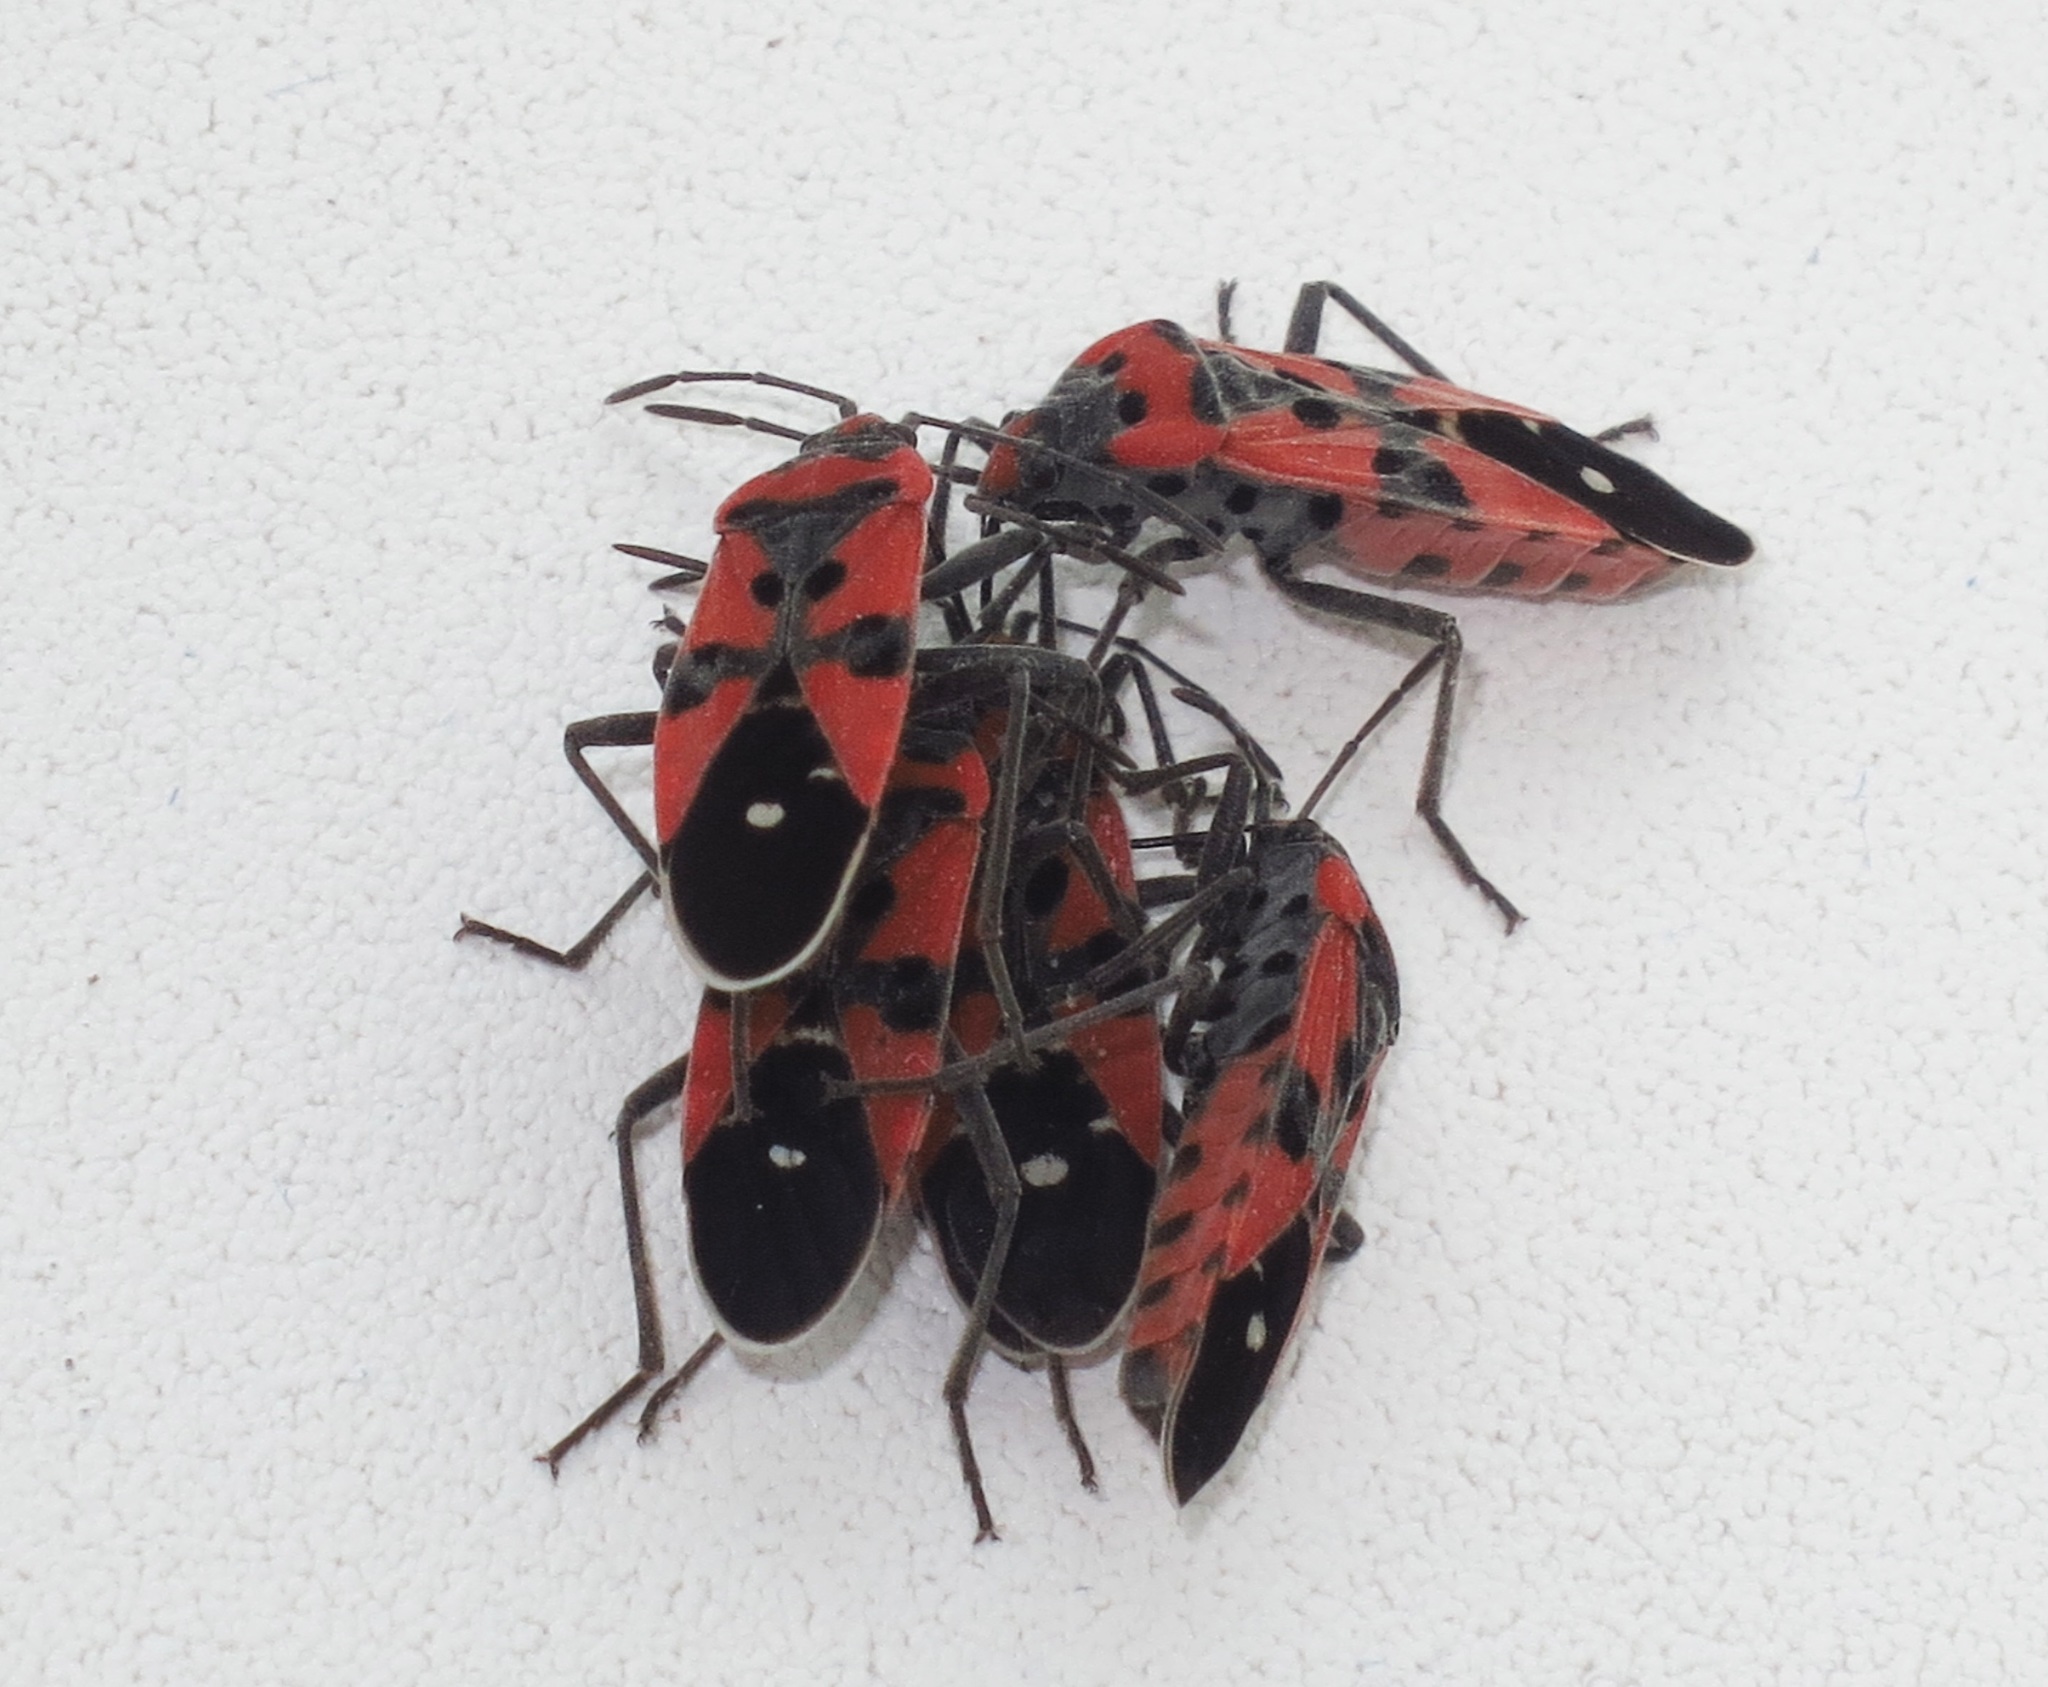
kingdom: Animalia
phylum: Arthropoda
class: Insecta
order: Hemiptera
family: Lygaeidae
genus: Lygaeus
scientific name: Lygaeus equestris
